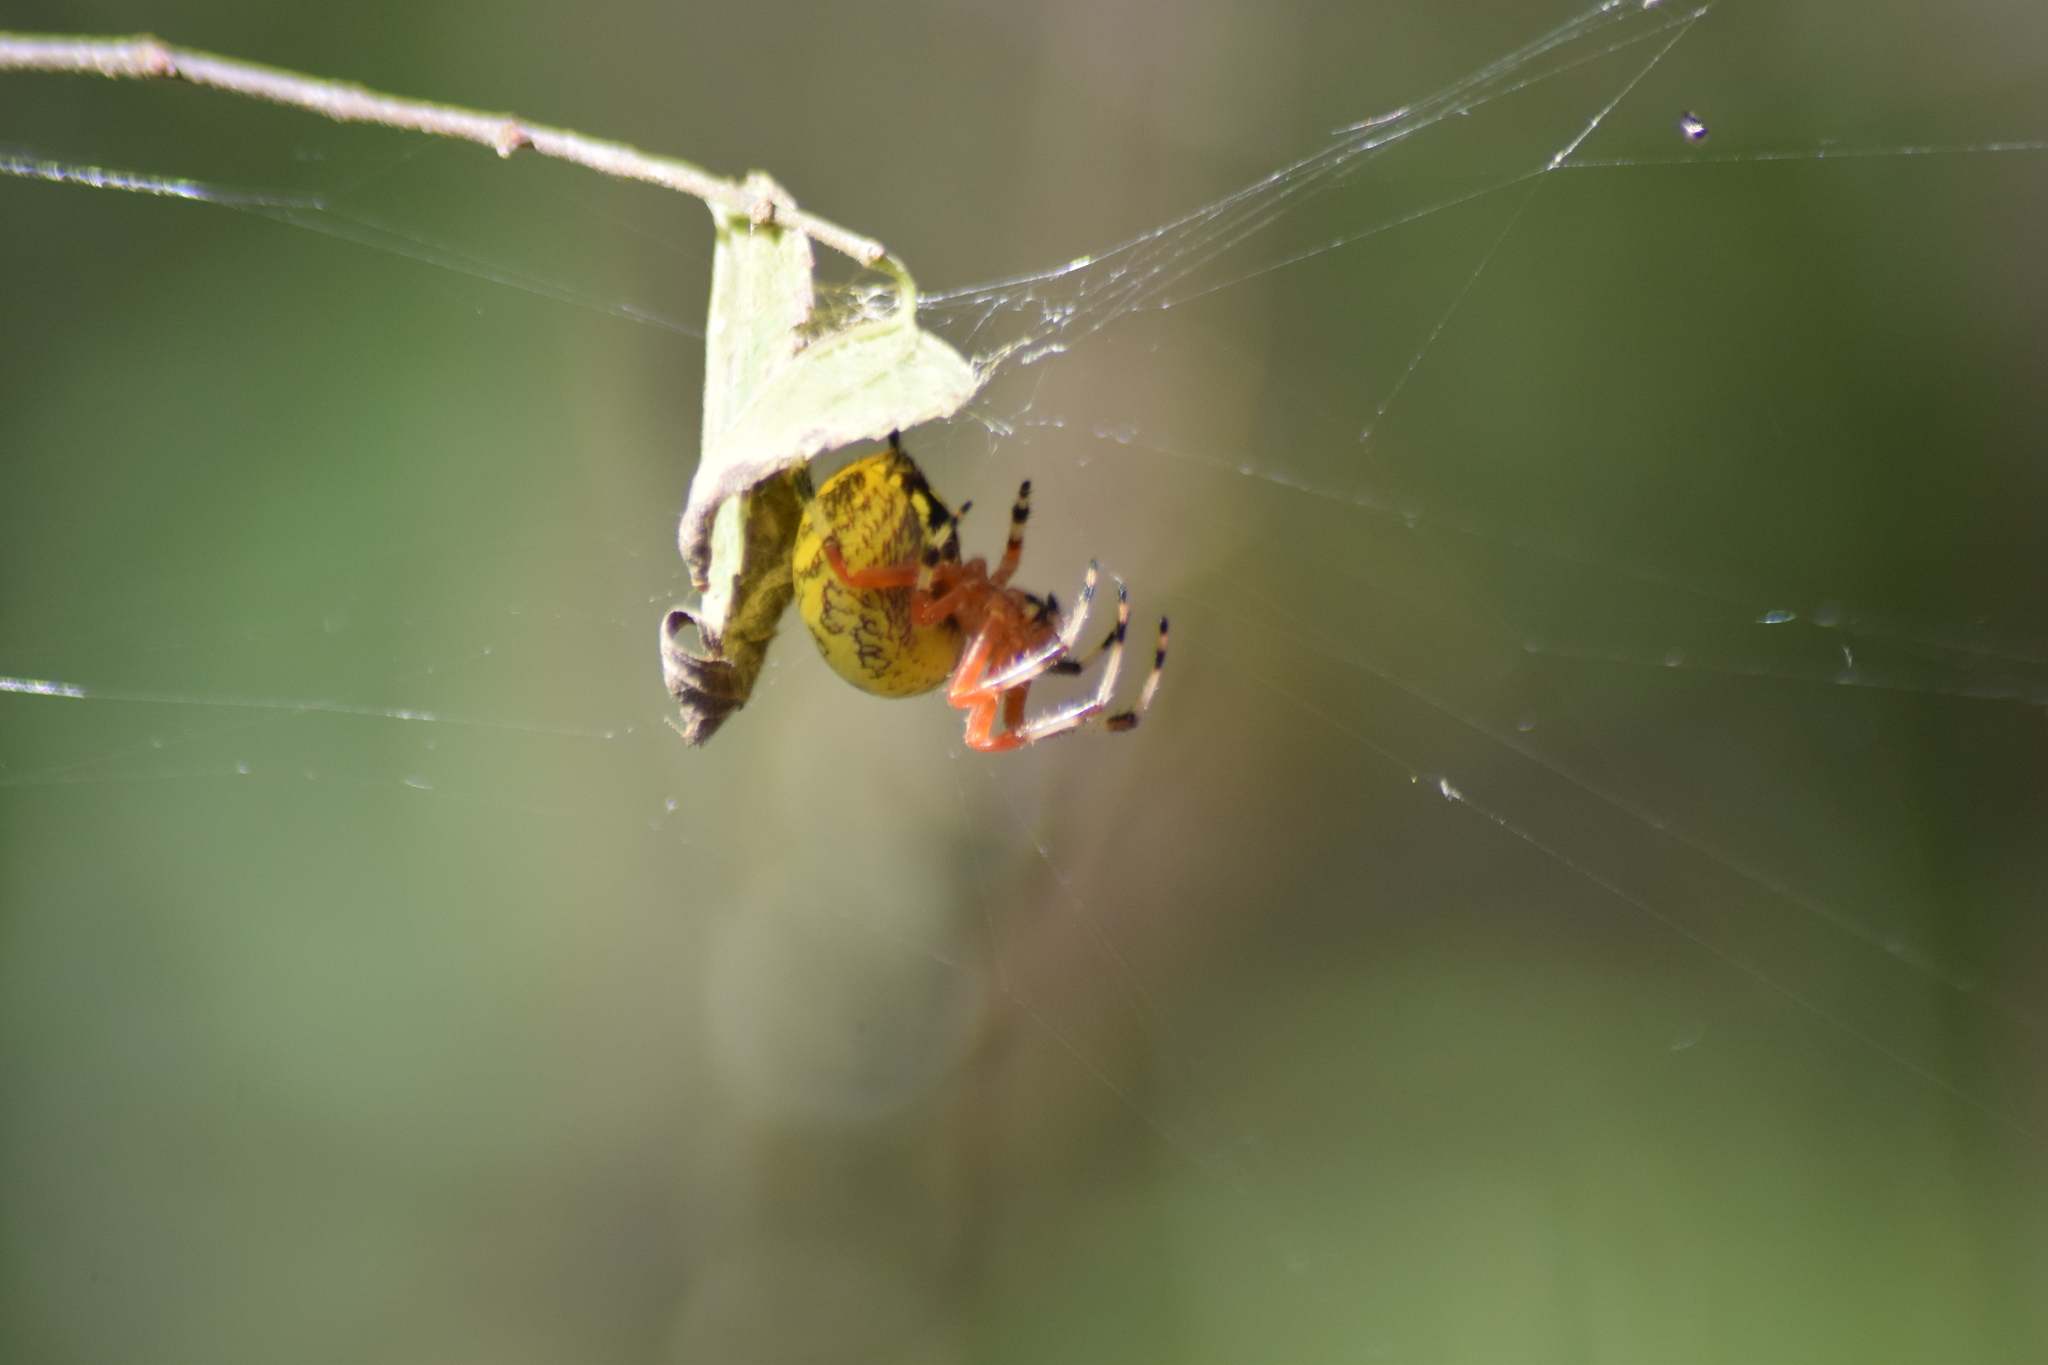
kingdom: Animalia
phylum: Arthropoda
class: Arachnida
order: Araneae
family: Araneidae
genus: Araneus
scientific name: Araneus marmoreus
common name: Marbled orbweaver
